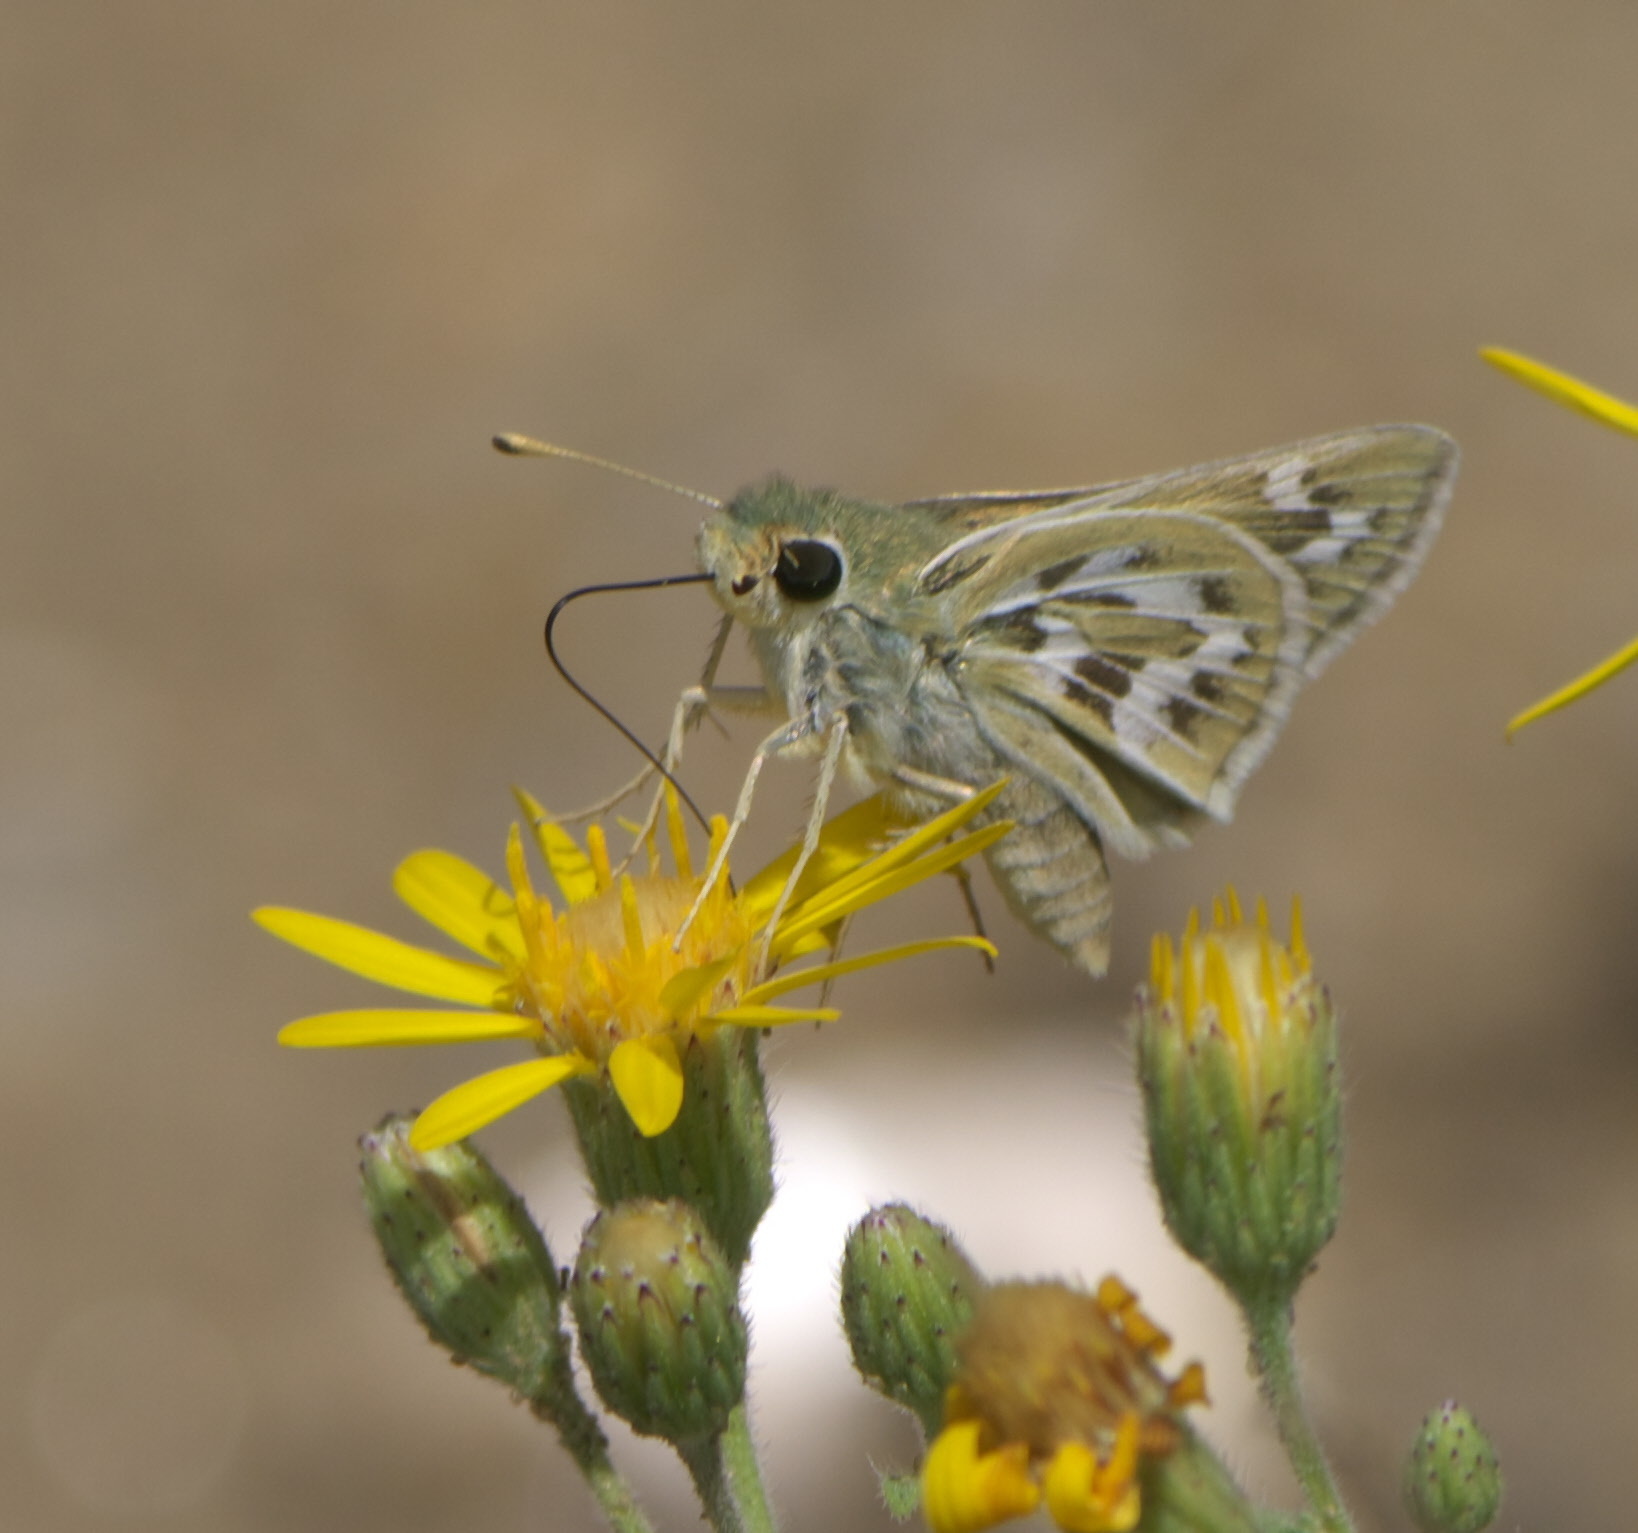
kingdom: Animalia
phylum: Arthropoda
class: Insecta
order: Lepidoptera
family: Hesperiidae
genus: Hesperia
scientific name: Hesperia uncas
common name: Uncas skipper
